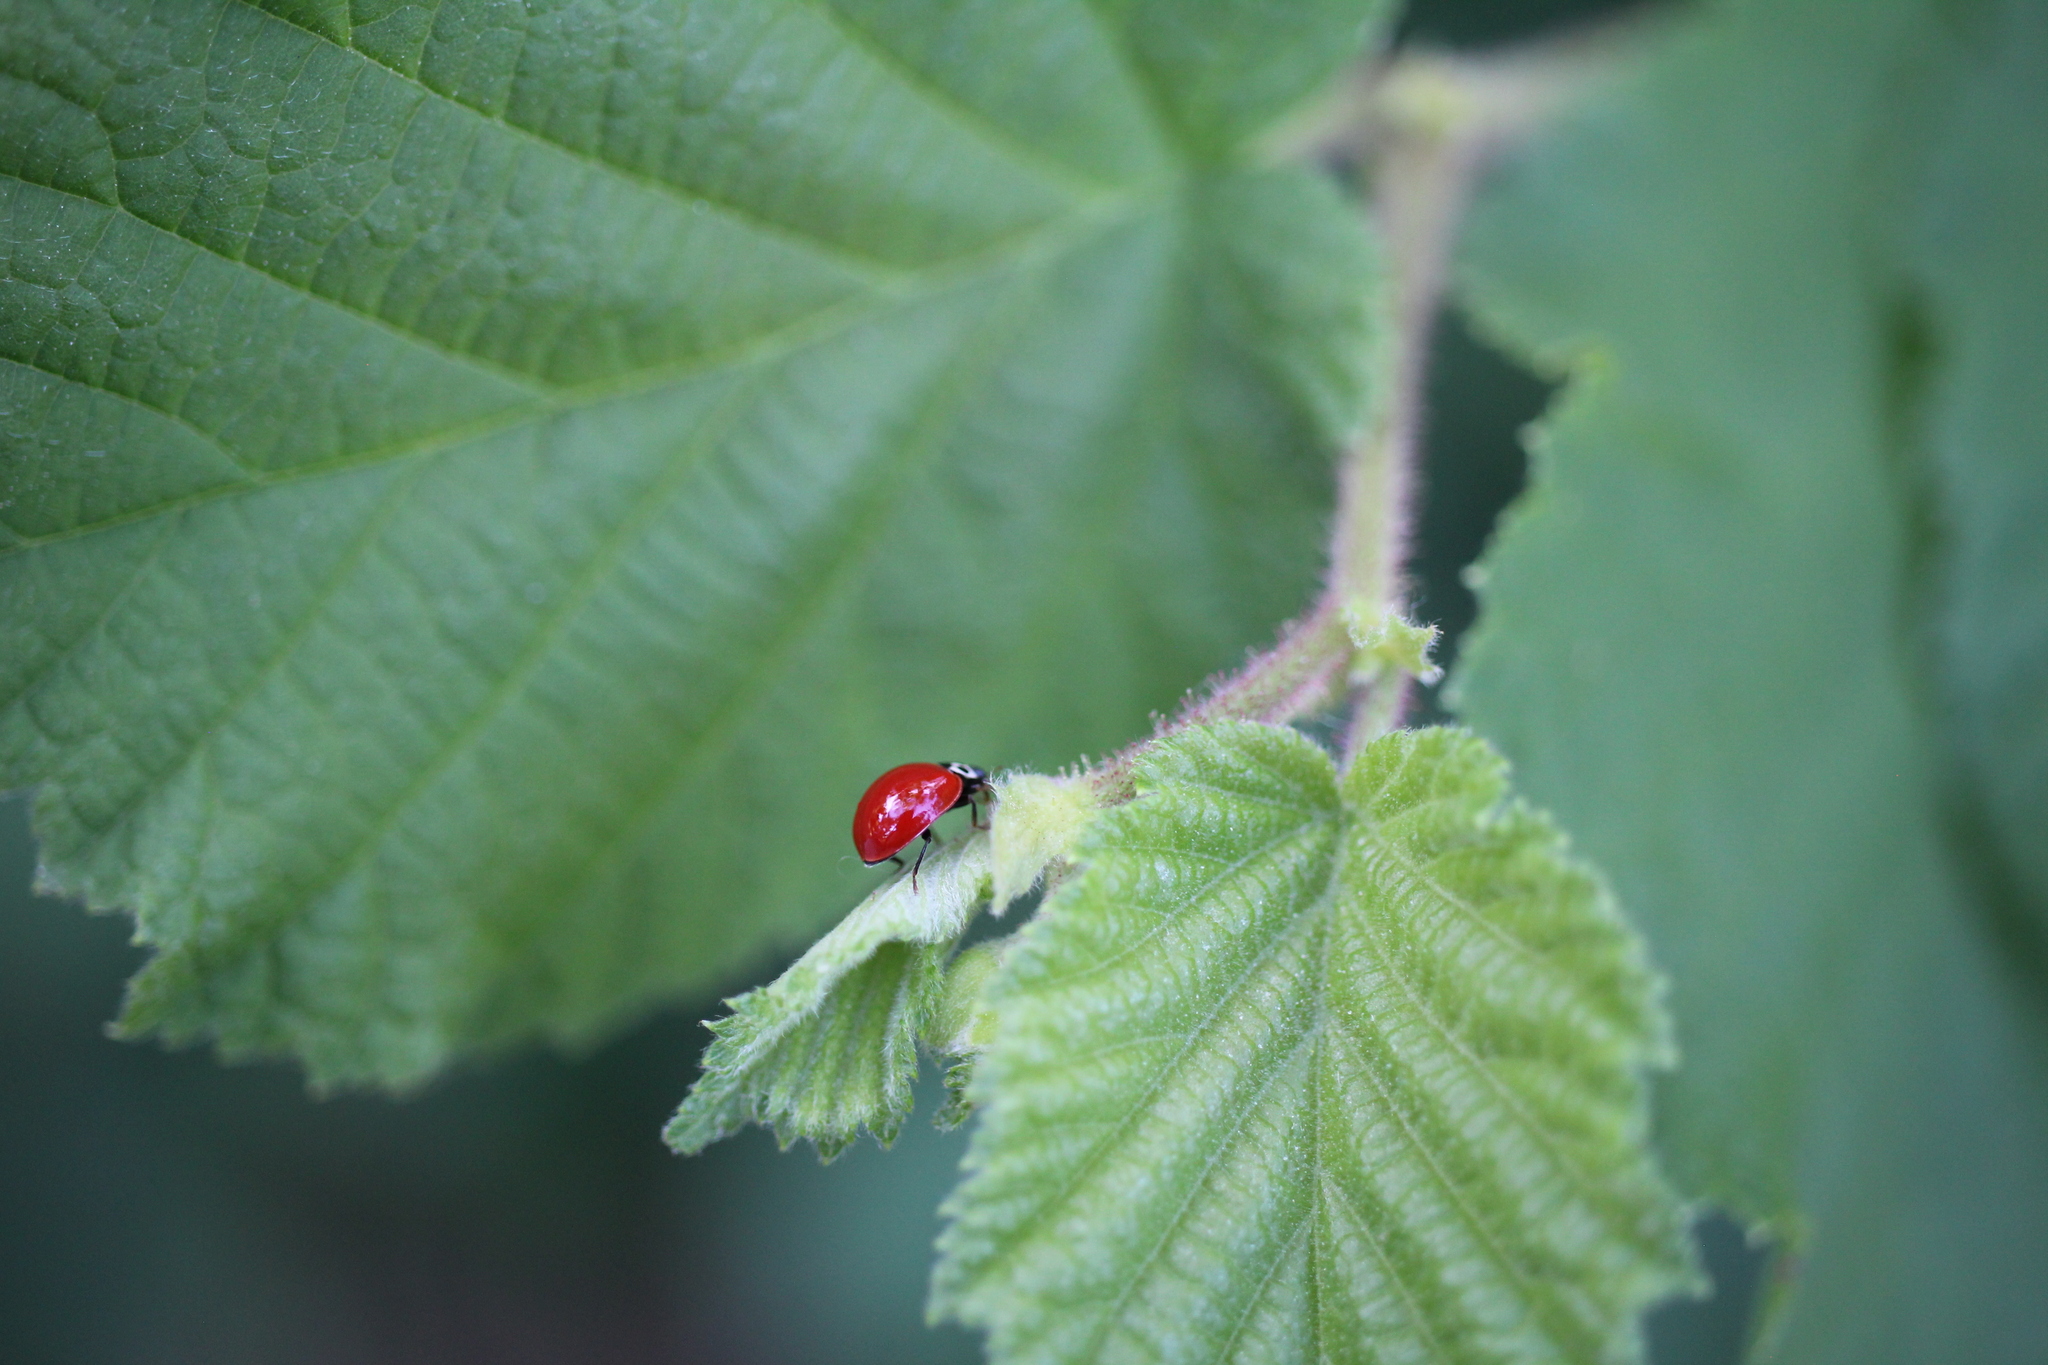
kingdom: Animalia
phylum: Arthropoda
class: Insecta
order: Coleoptera
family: Coccinellidae
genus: Cycloneda
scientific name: Cycloneda polita
